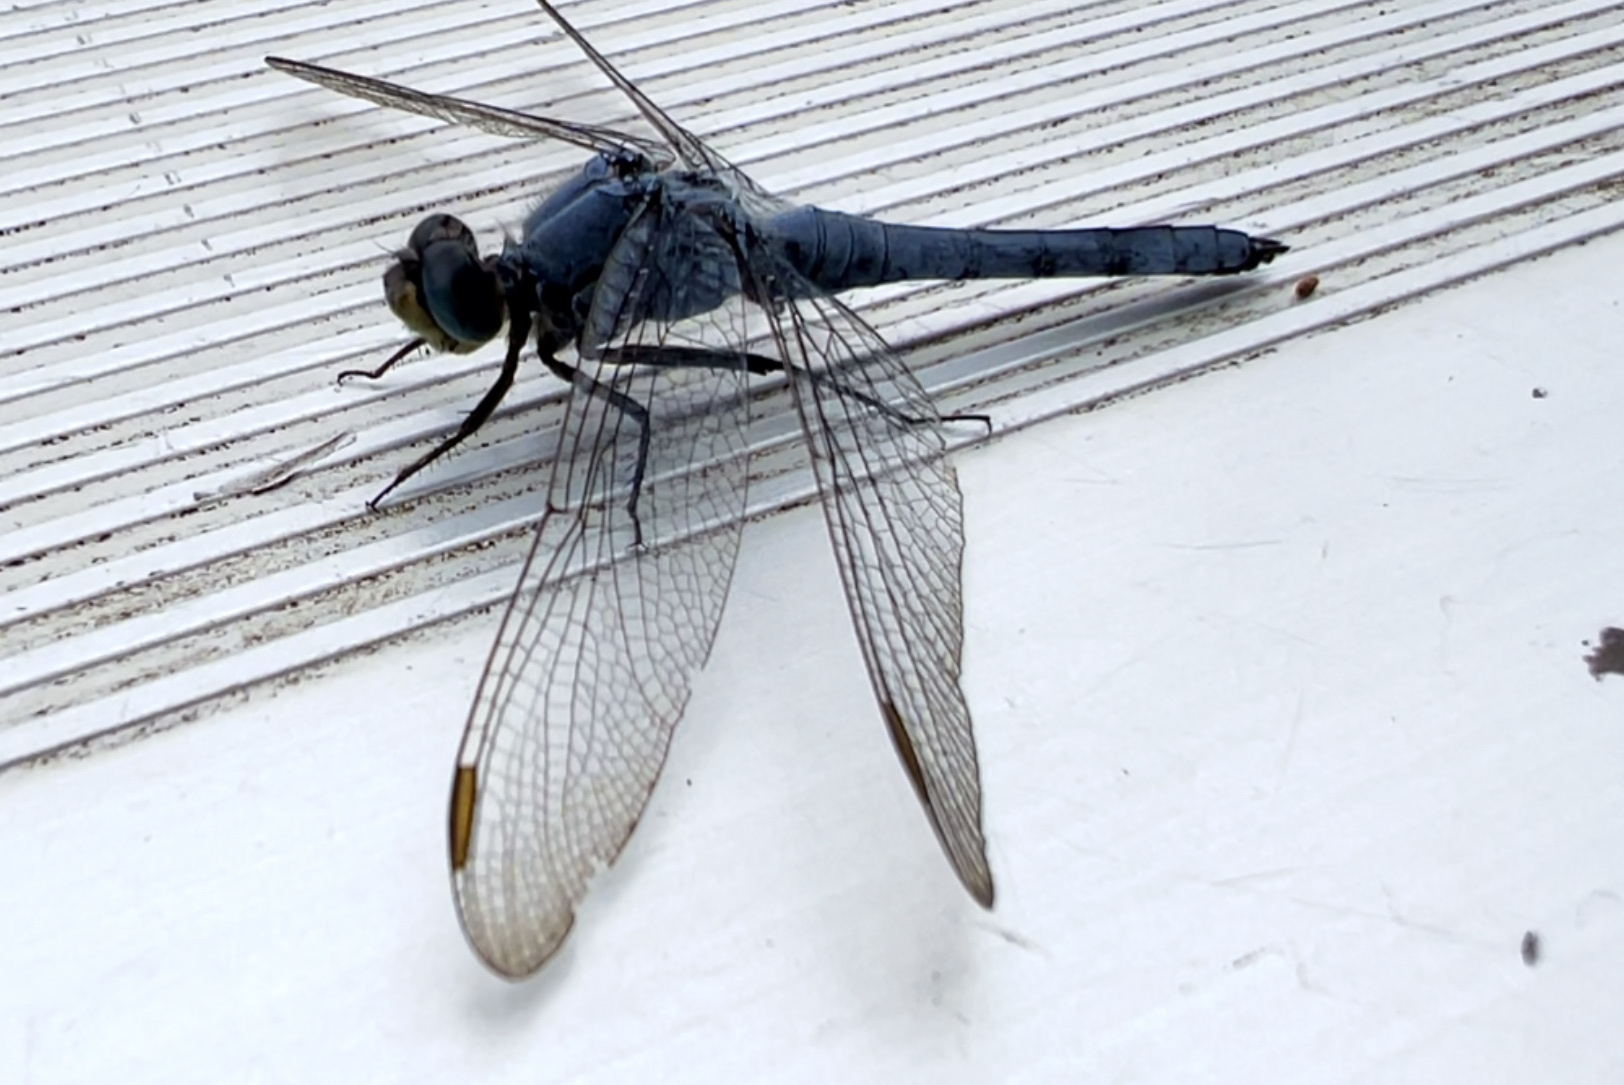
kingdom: Animalia
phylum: Arthropoda
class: Insecta
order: Odonata
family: Libellulidae
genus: Erythemis
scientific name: Erythemis collocata
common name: Western pondhawk
